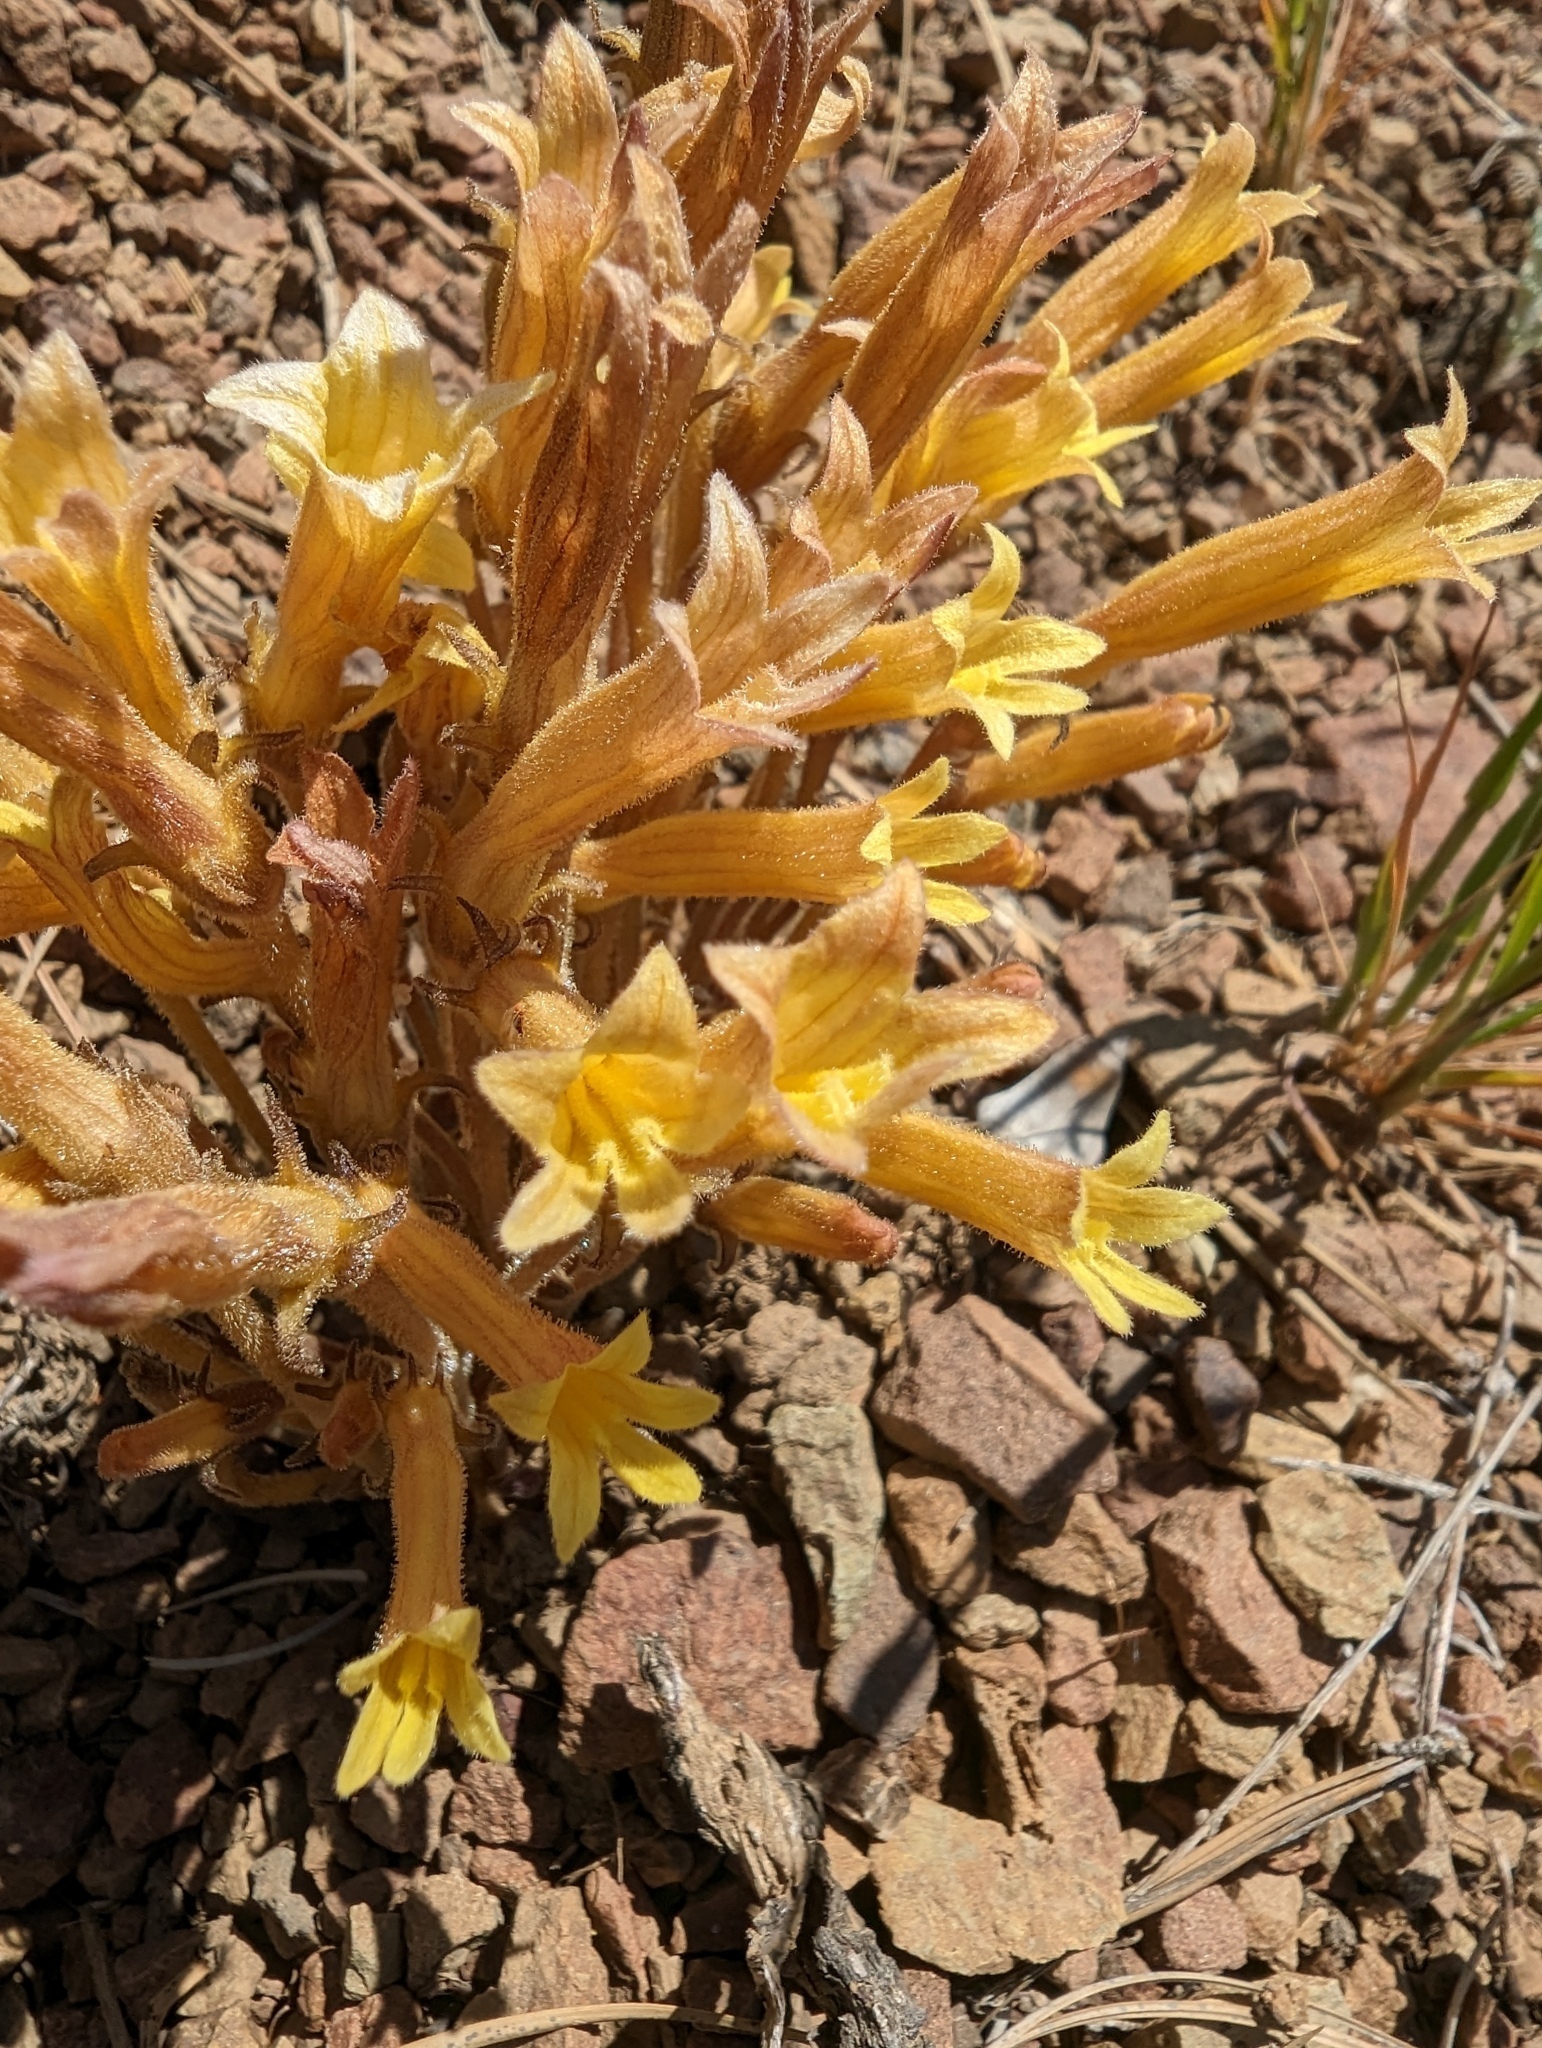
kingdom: Plantae
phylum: Tracheophyta
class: Magnoliopsida
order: Lamiales
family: Orobanchaceae
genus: Aphyllon
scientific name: Aphyllon franciscanum
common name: San francisco broomrape
